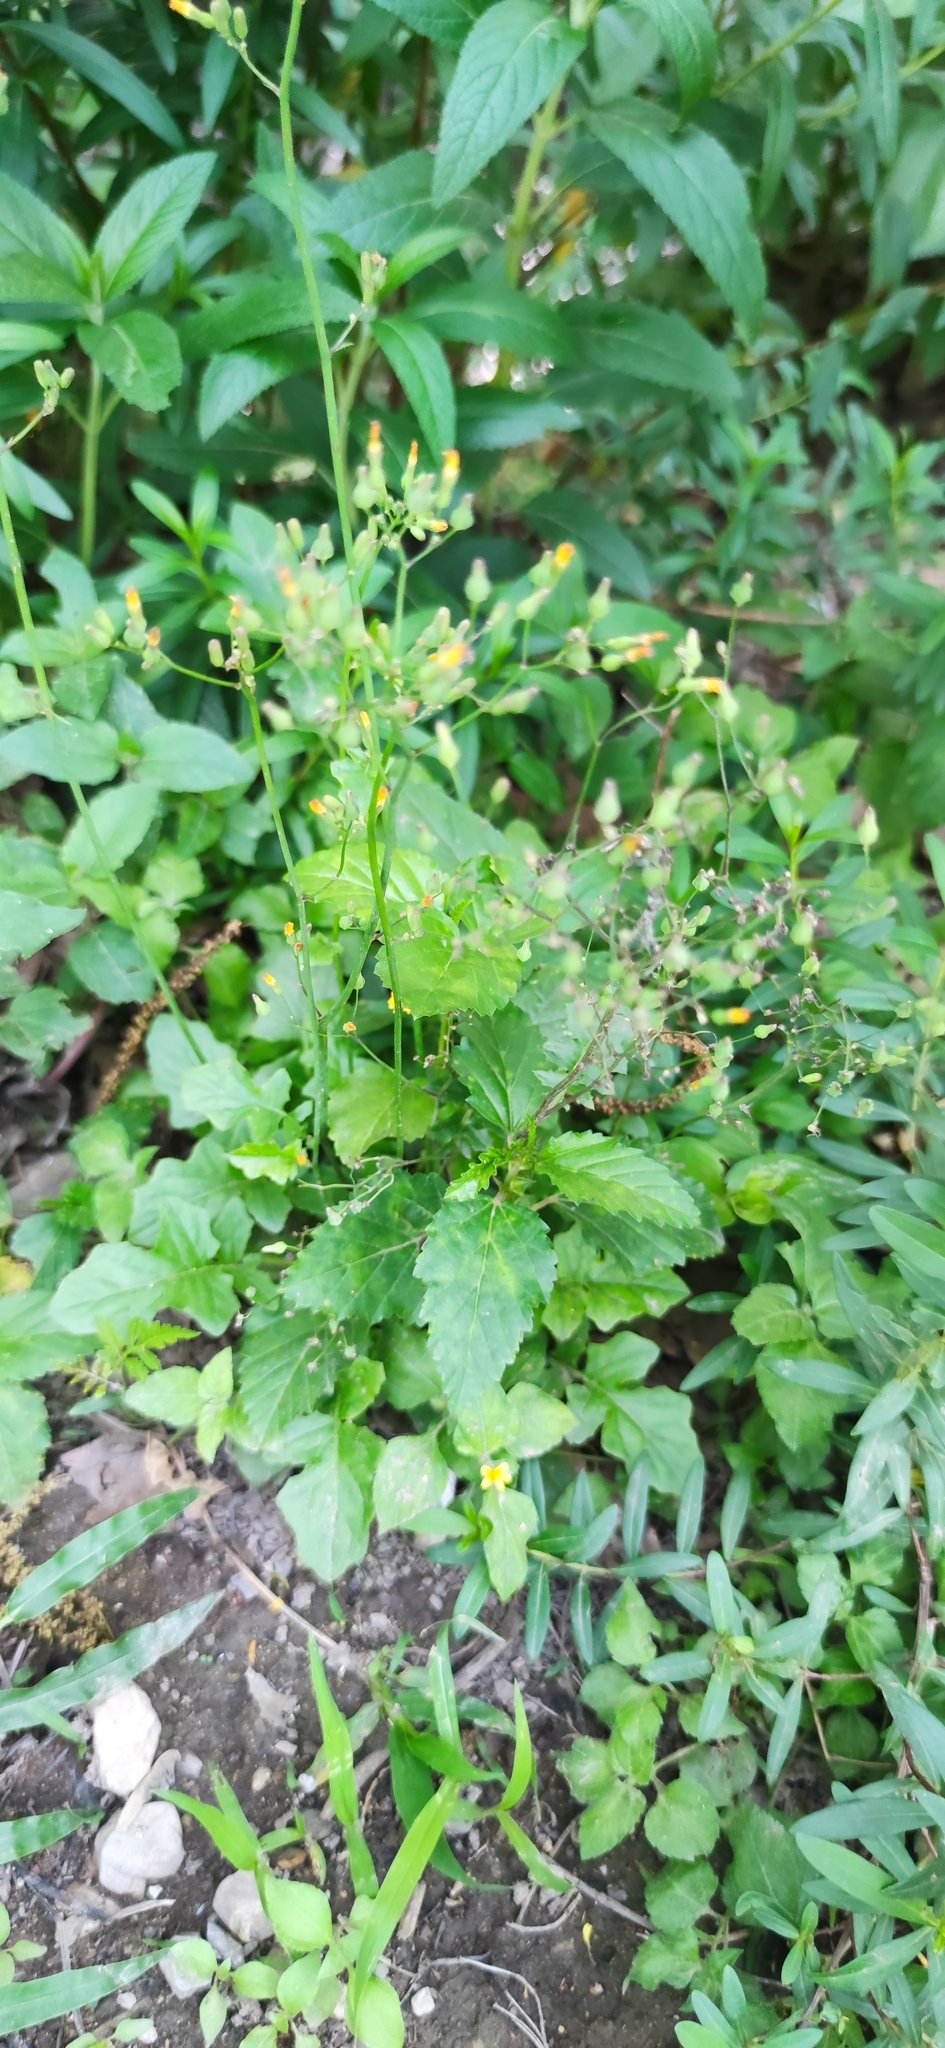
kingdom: Plantae
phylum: Tracheophyta
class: Magnoliopsida
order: Asterales
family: Asteraceae
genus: Youngia
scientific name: Youngia japonica
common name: Oriental false hawksbeard
